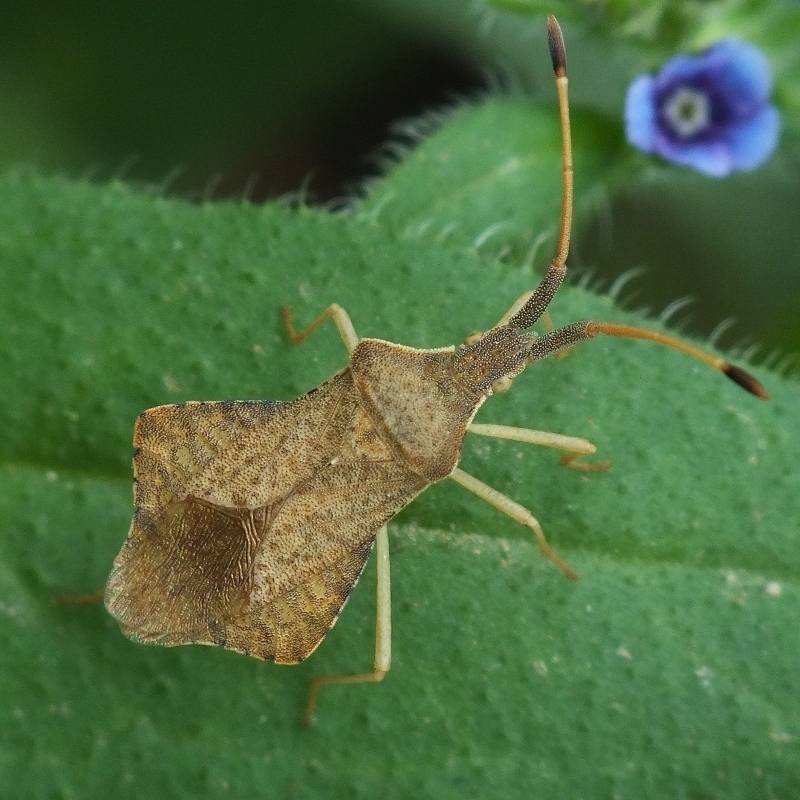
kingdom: Animalia
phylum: Arthropoda
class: Insecta
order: Hemiptera
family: Coreidae
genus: Syromastus
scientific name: Syromastus rhombeus
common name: Rhombic leatherbug
